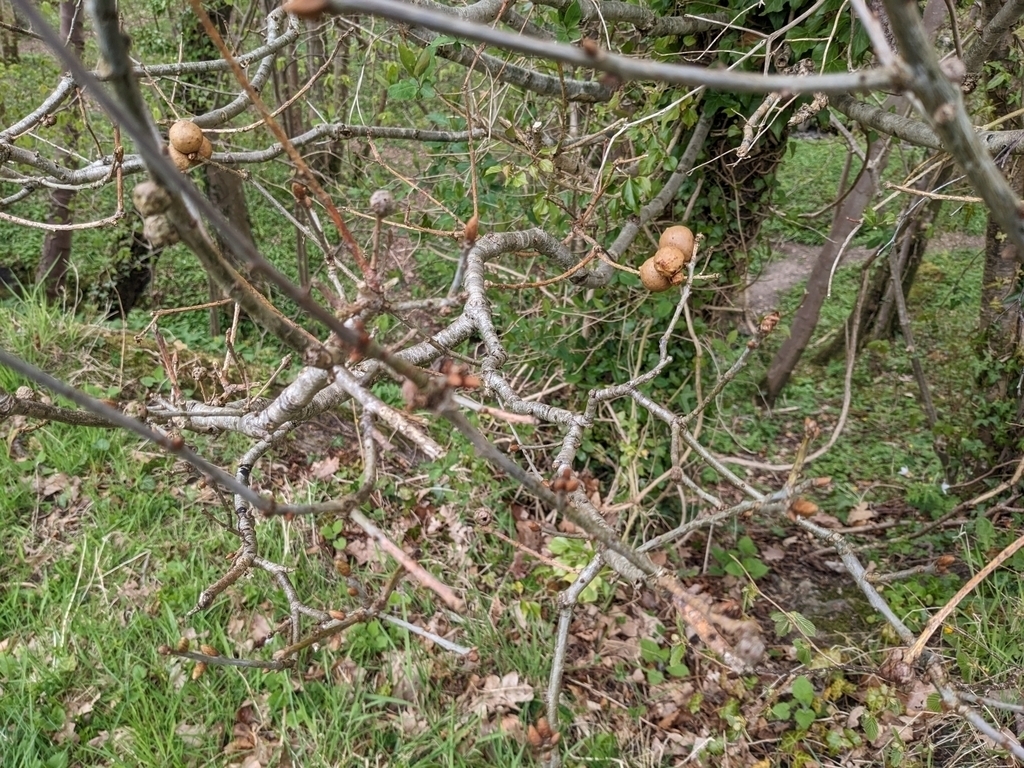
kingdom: Animalia
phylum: Arthropoda
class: Insecta
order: Hymenoptera
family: Cynipidae
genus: Andricus
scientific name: Andricus kollari
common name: Marble gall
